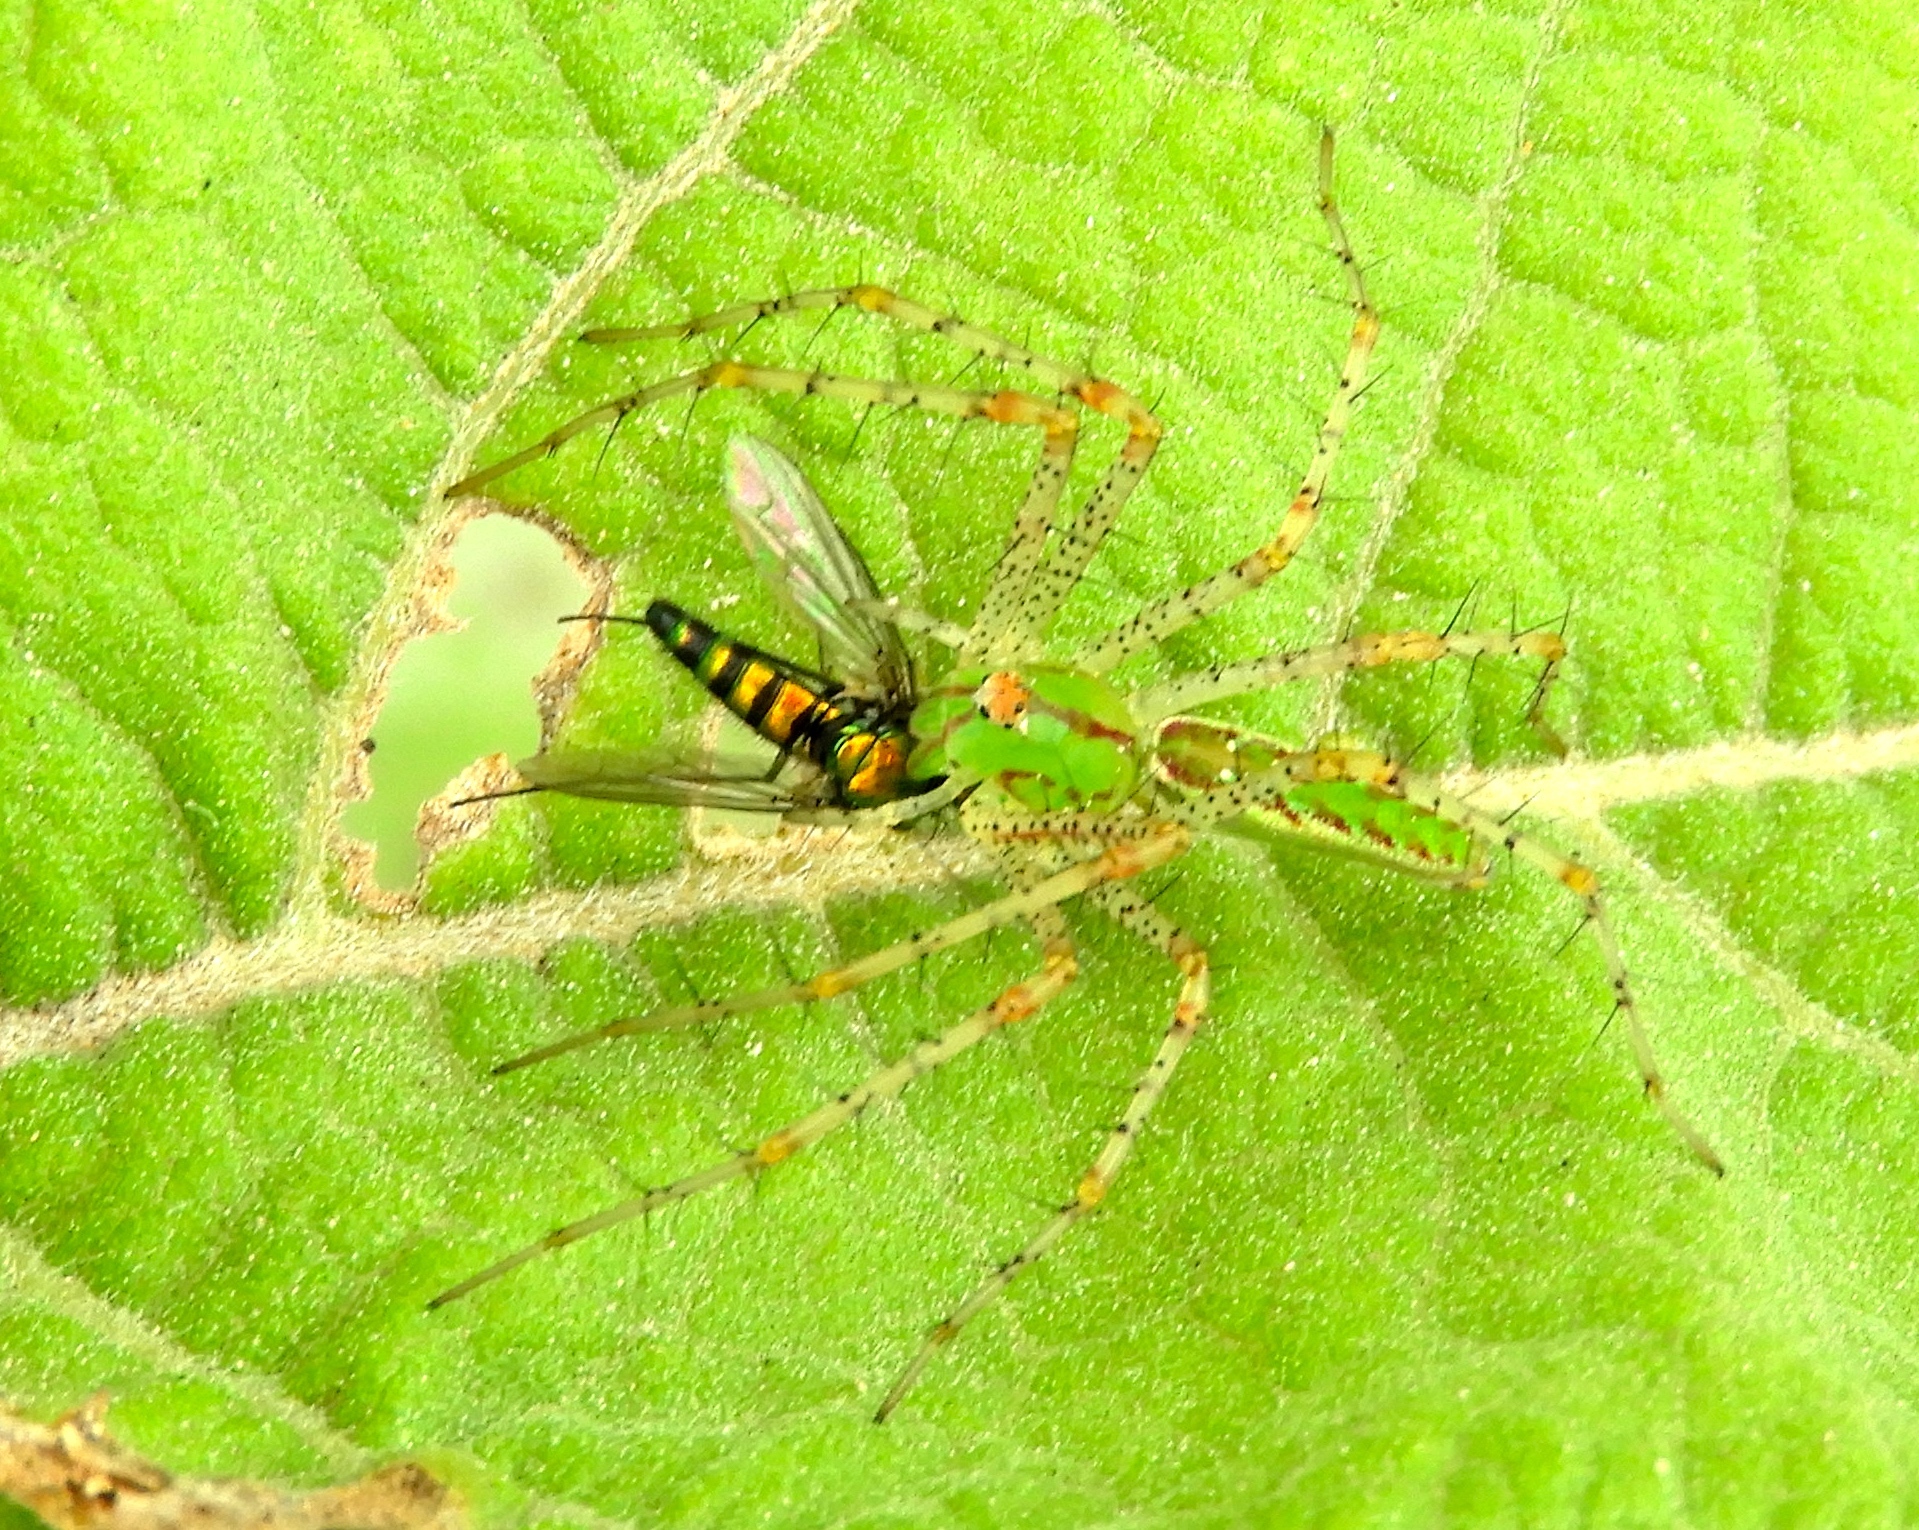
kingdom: Animalia
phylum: Arthropoda
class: Arachnida
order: Araneae
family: Oxyopidae
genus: Peucetia
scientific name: Peucetia
